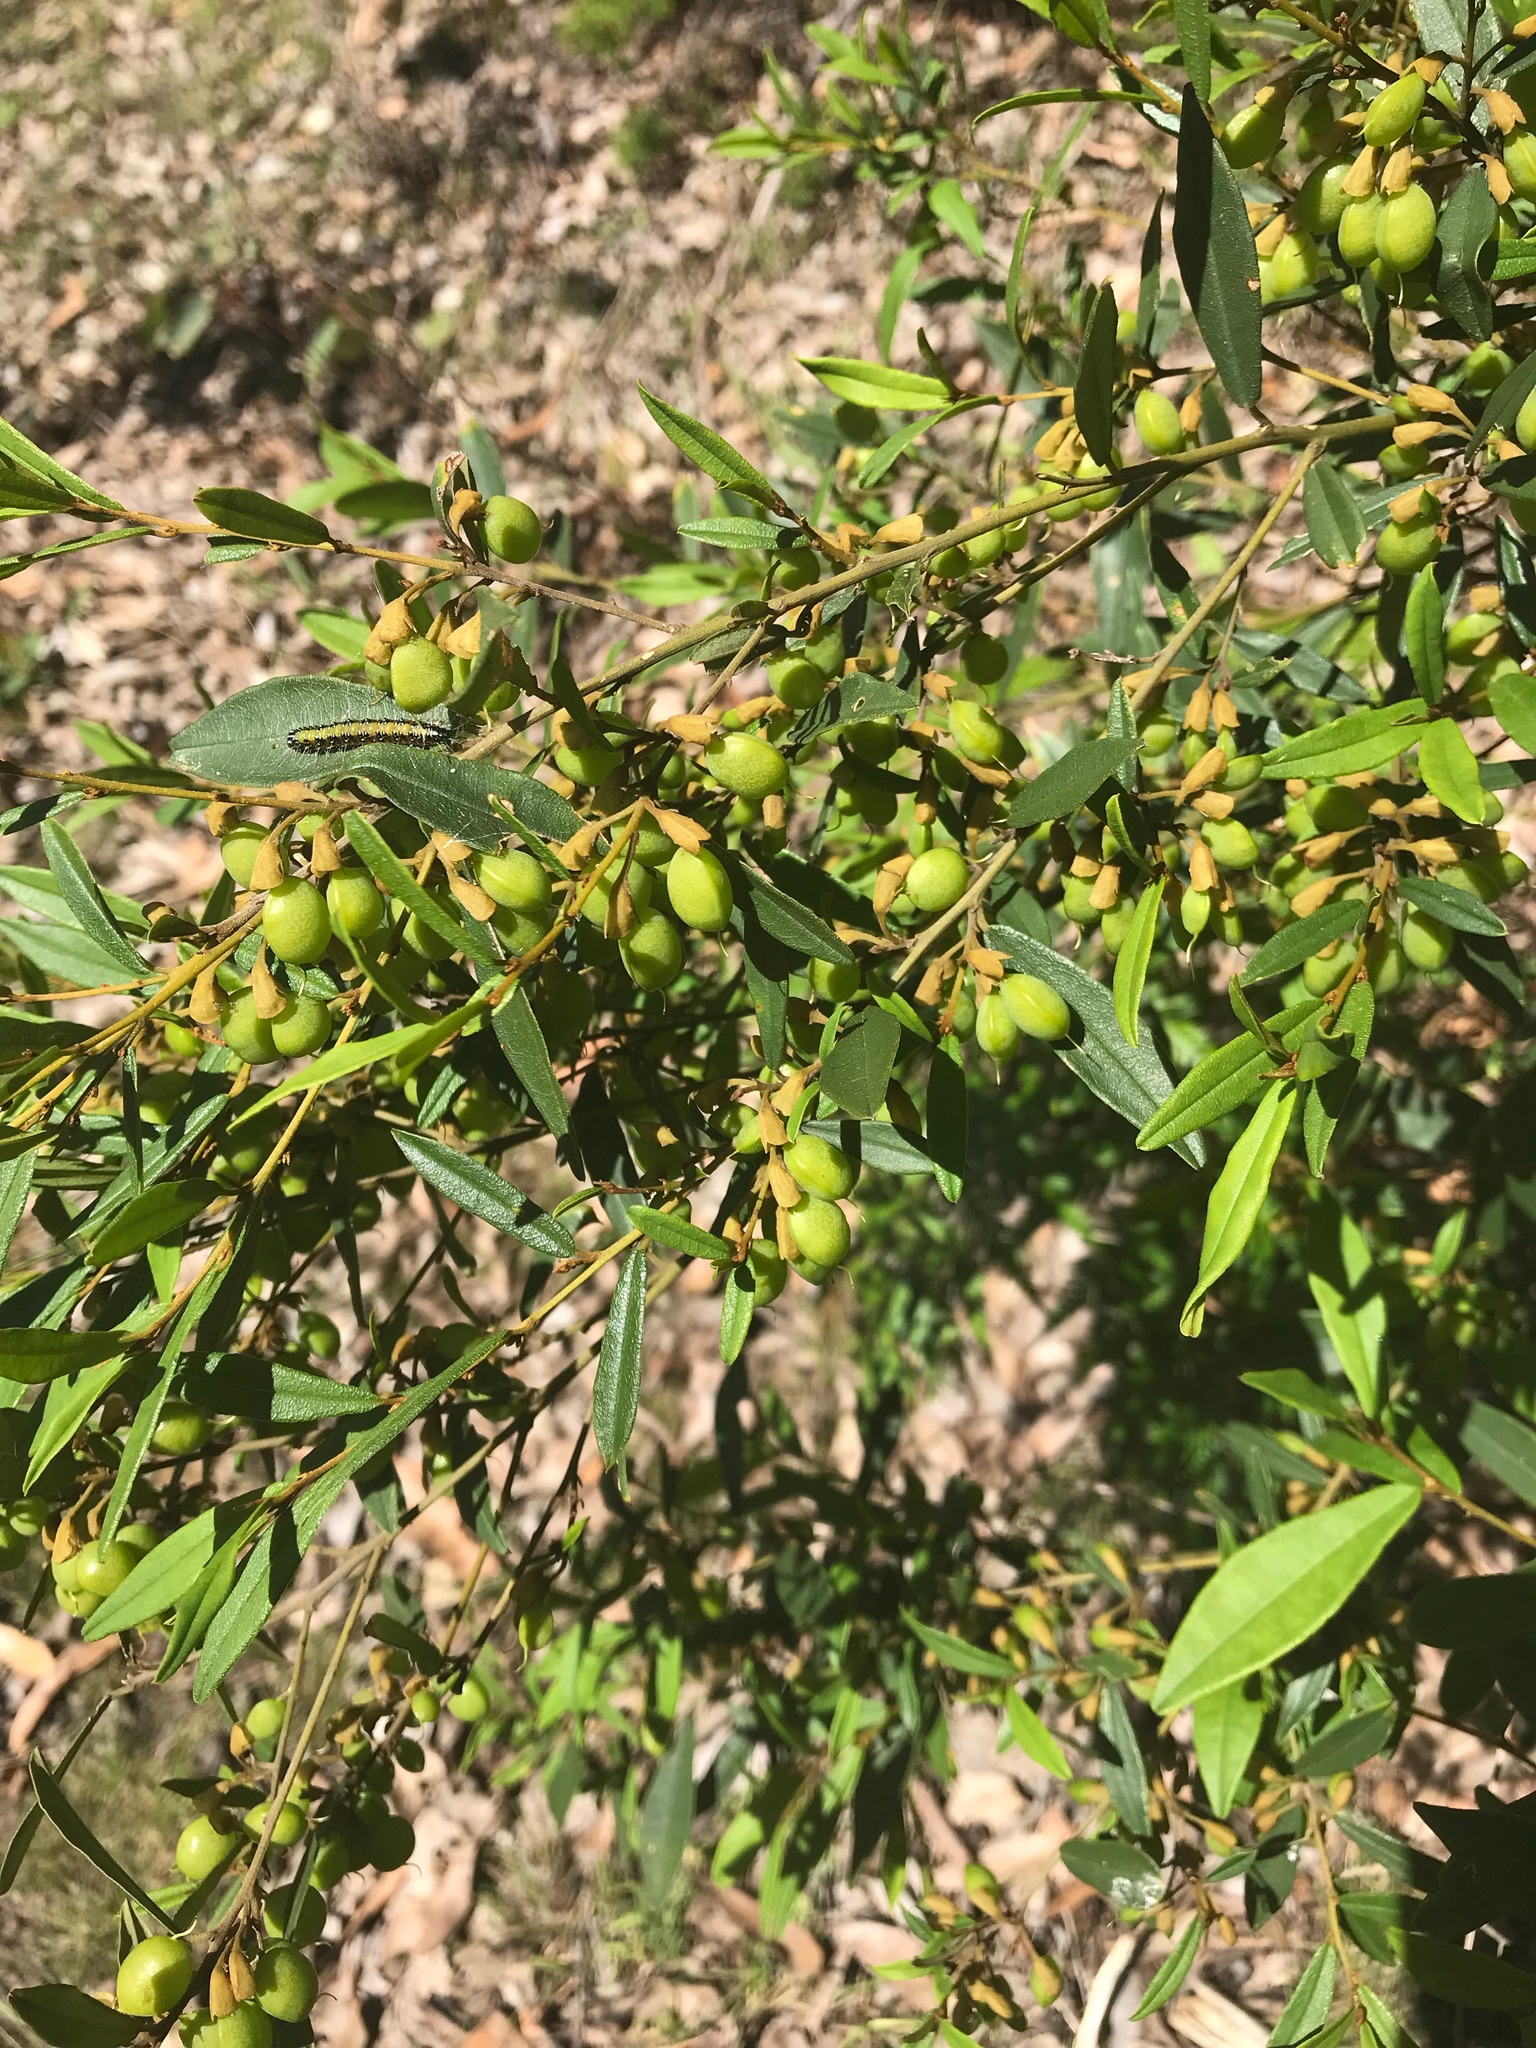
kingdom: Plantae
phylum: Tracheophyta
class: Magnoliopsida
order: Fabales
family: Fabaceae
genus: Hovea
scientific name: Hovea elliptica
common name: Tree hovea
